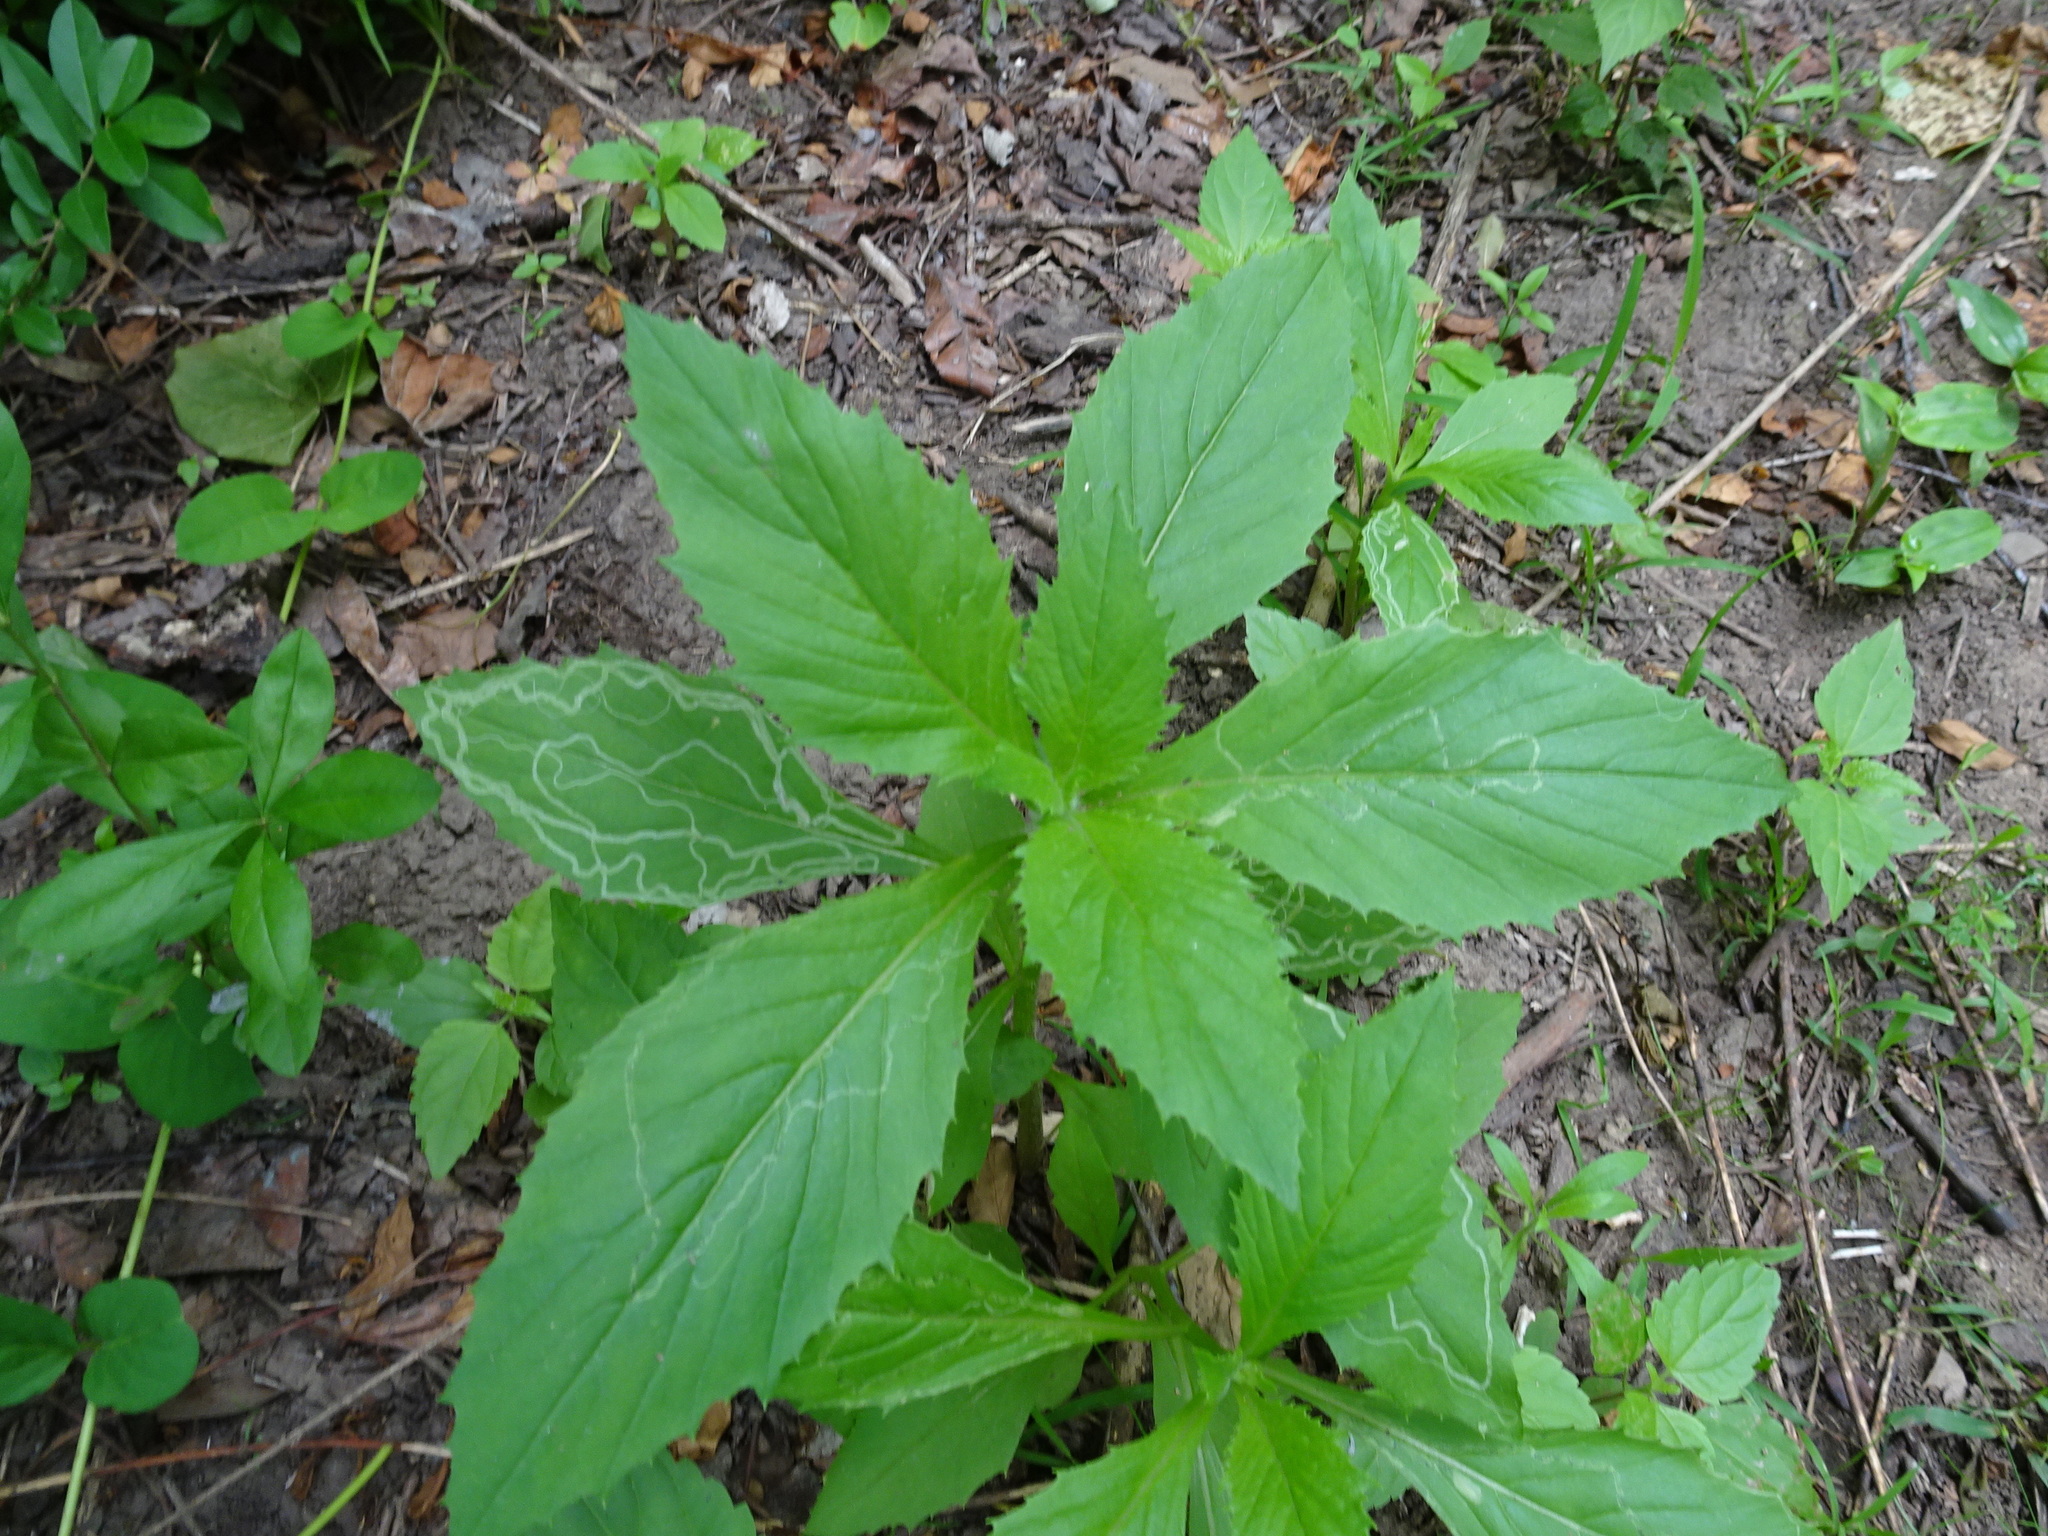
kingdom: Animalia
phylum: Arthropoda
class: Insecta
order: Lepidoptera
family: Gracillariidae
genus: Phyllocnistis
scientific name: Phyllocnistis insignis
